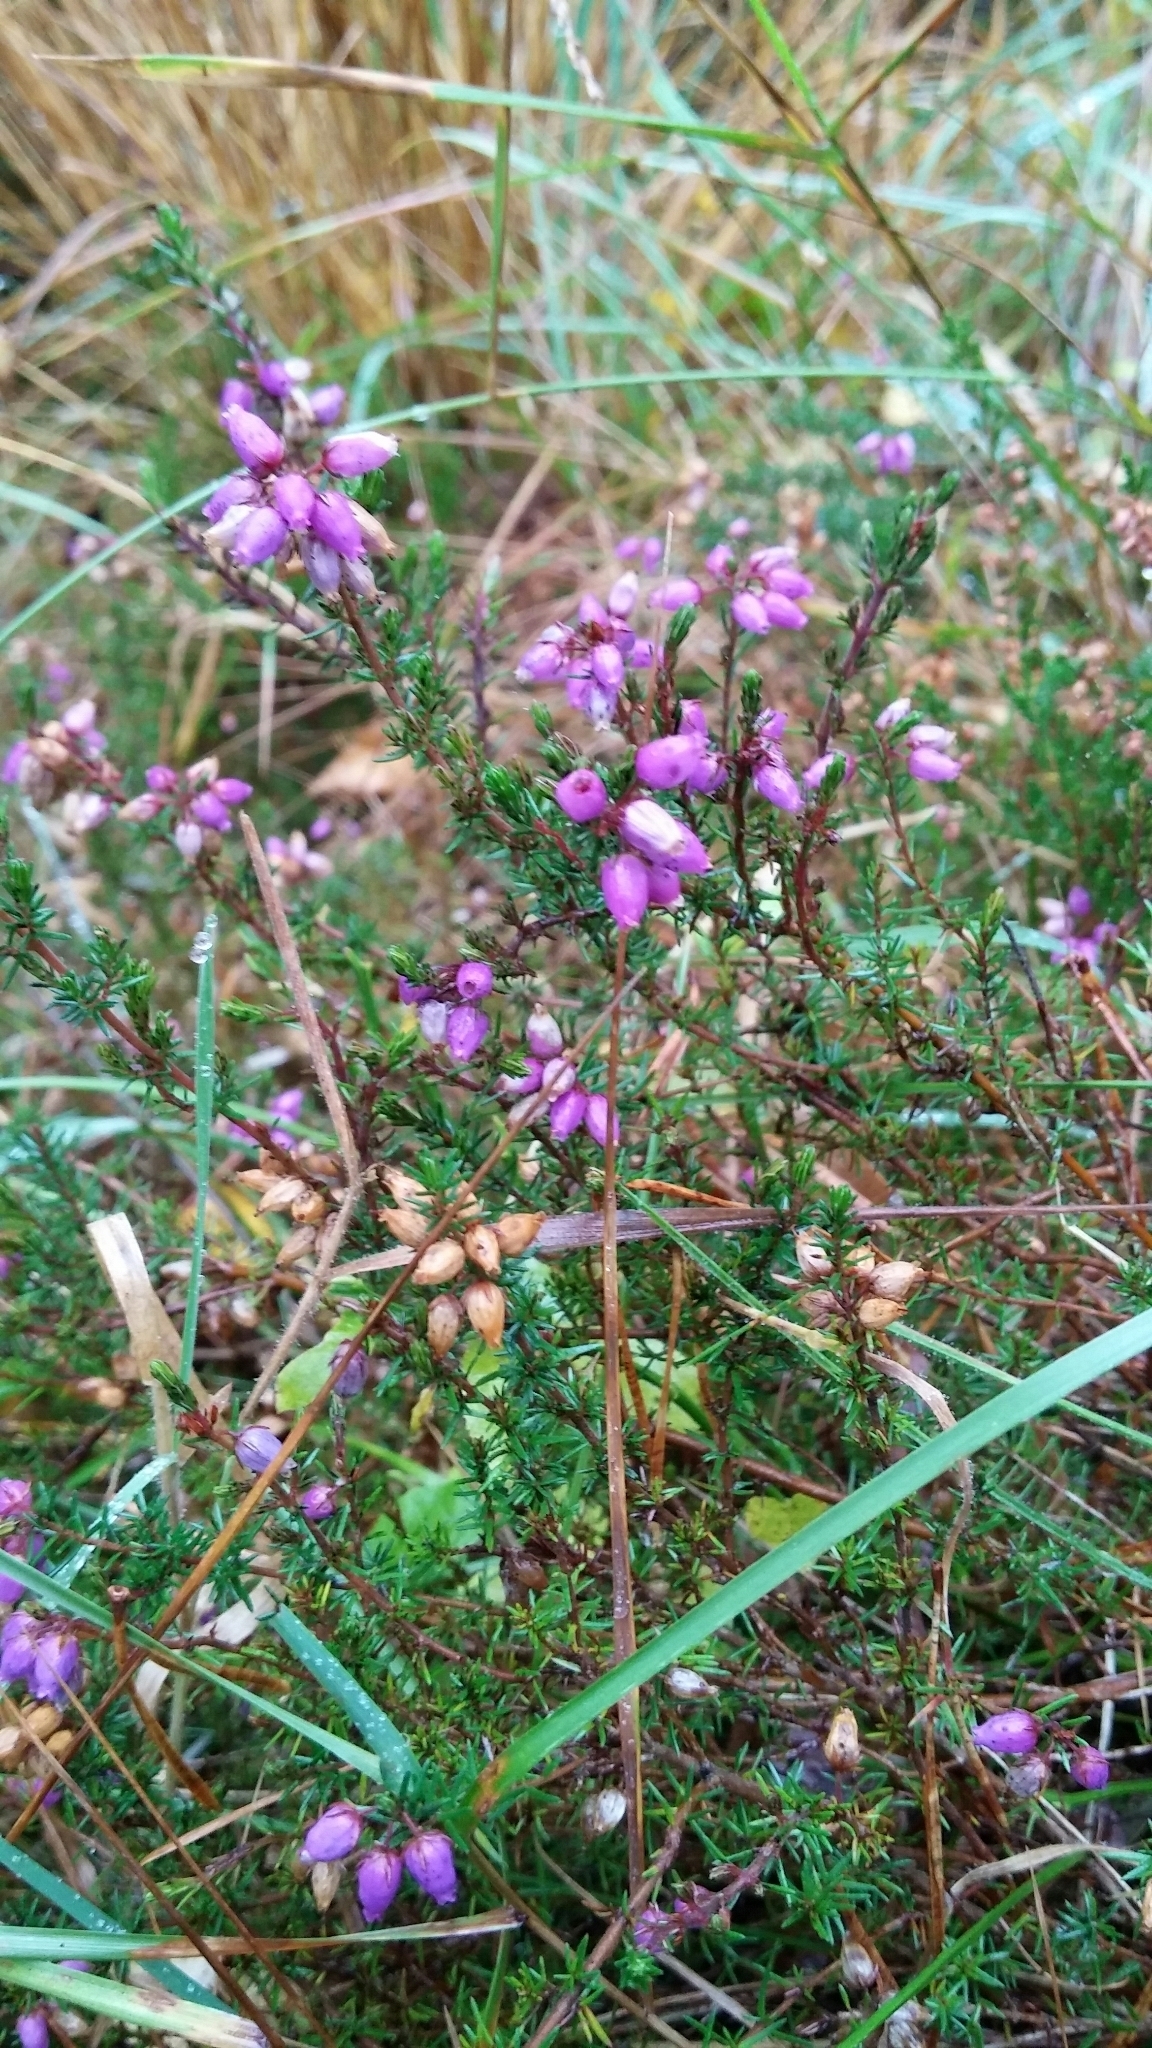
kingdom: Plantae
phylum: Tracheophyta
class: Magnoliopsida
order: Ericales
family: Ericaceae
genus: Erica
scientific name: Erica cinerea
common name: Bell heather
